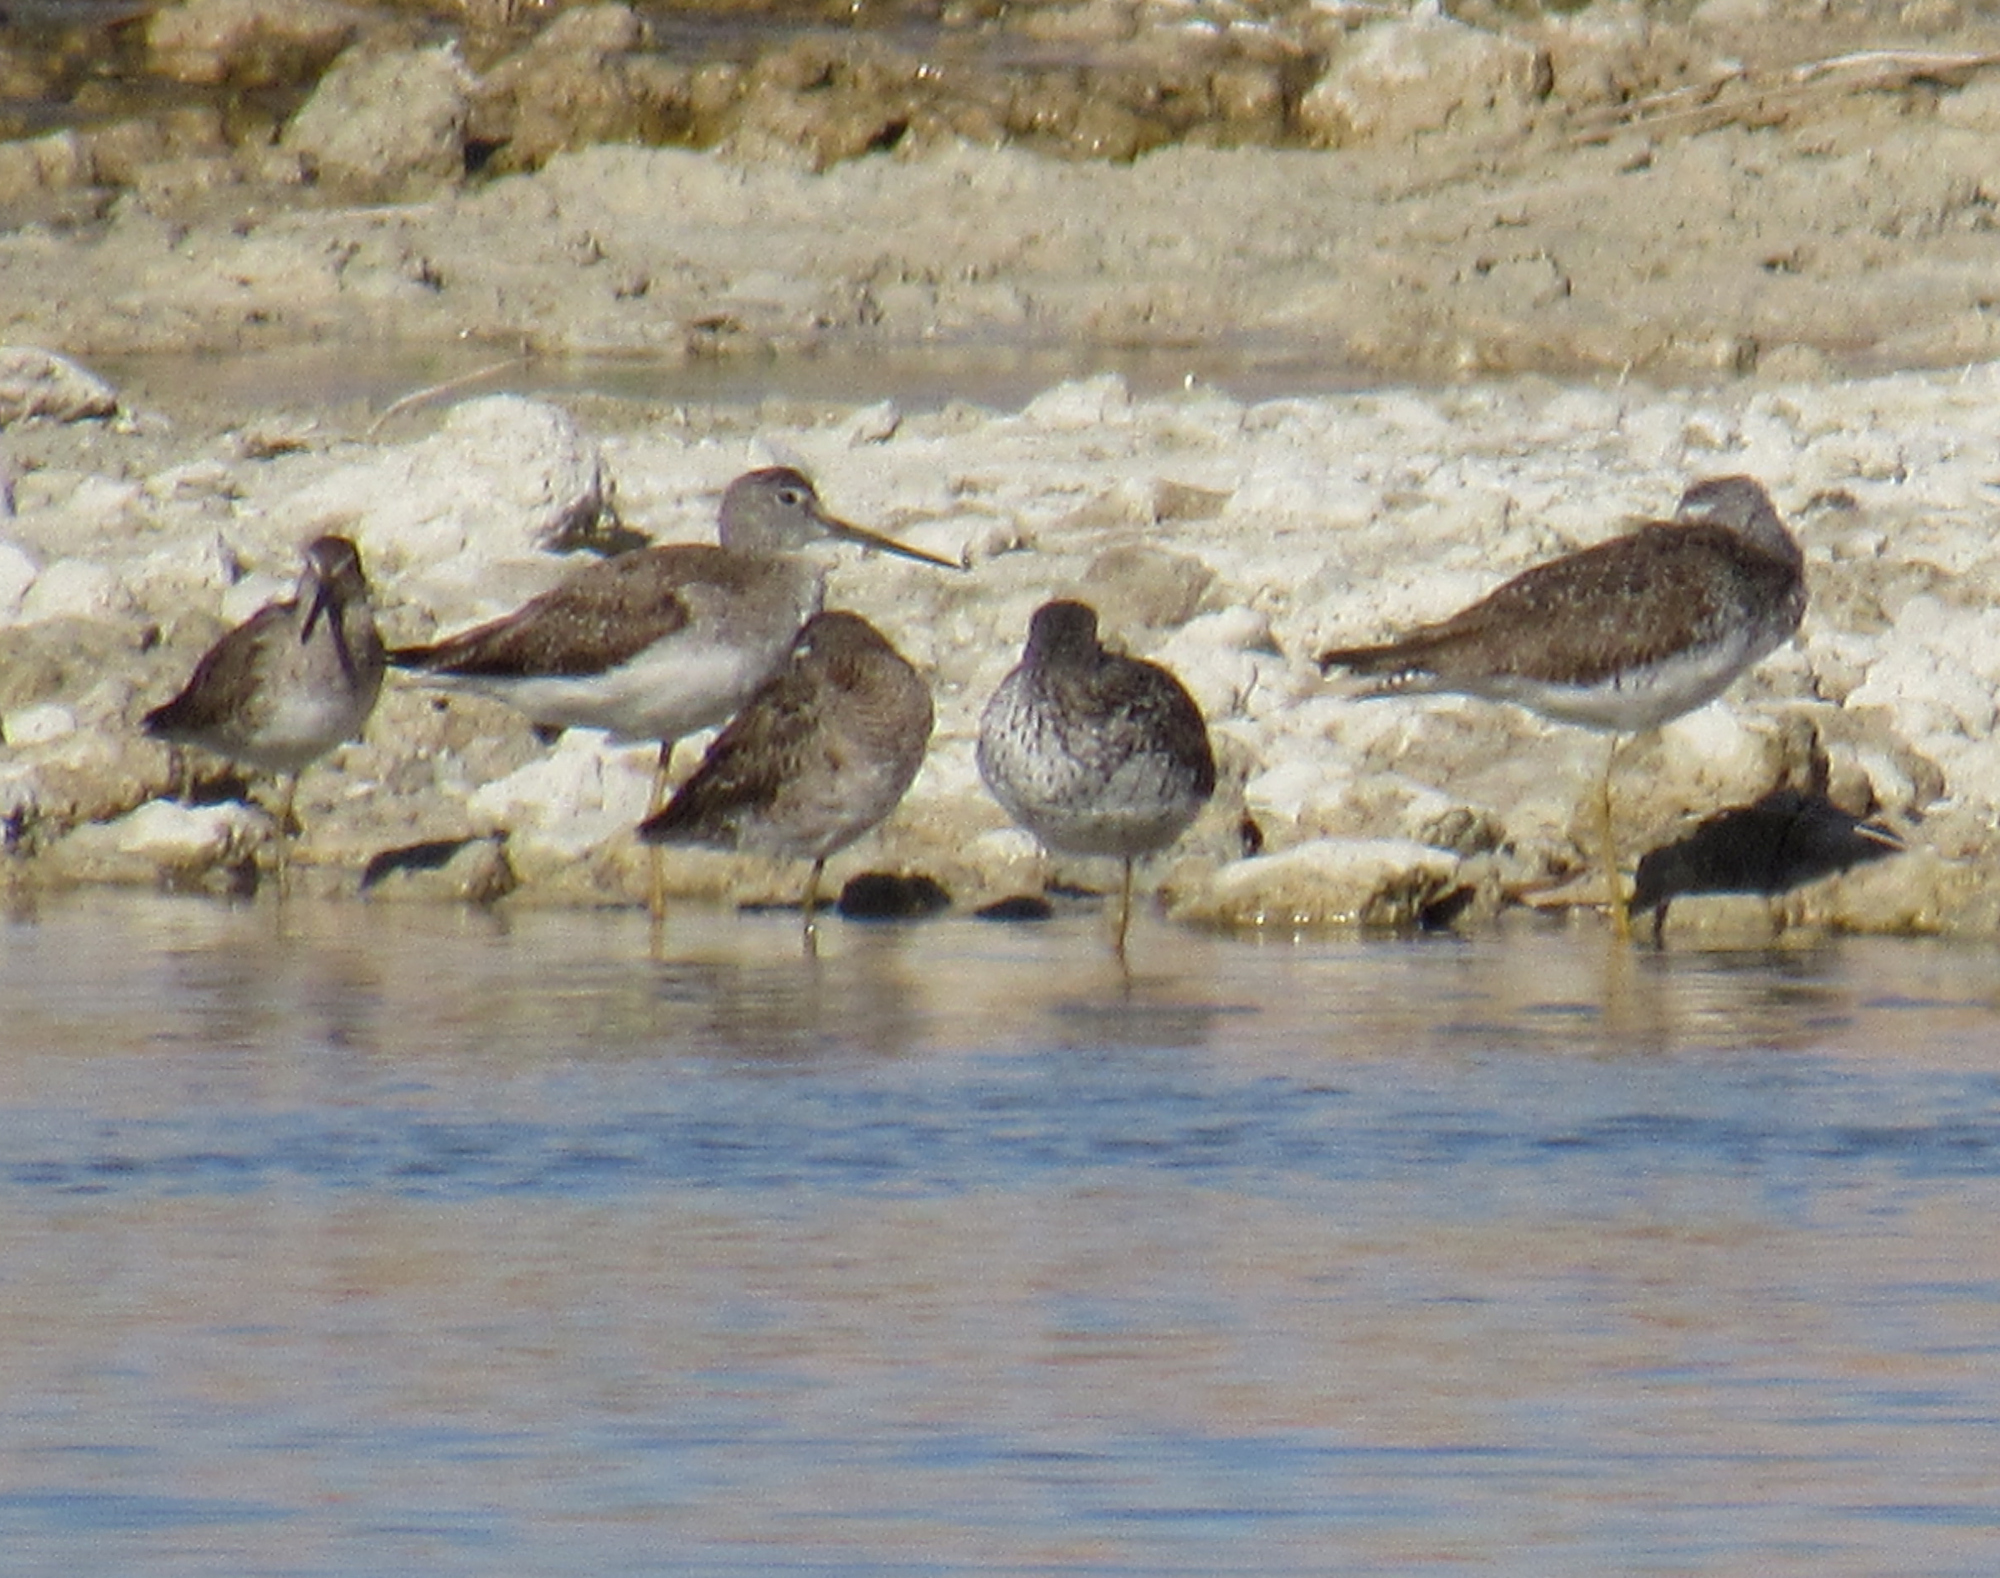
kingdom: Animalia
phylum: Chordata
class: Aves
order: Charadriiformes
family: Scolopacidae
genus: Tringa
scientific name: Tringa melanoleuca
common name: Greater yellowlegs
